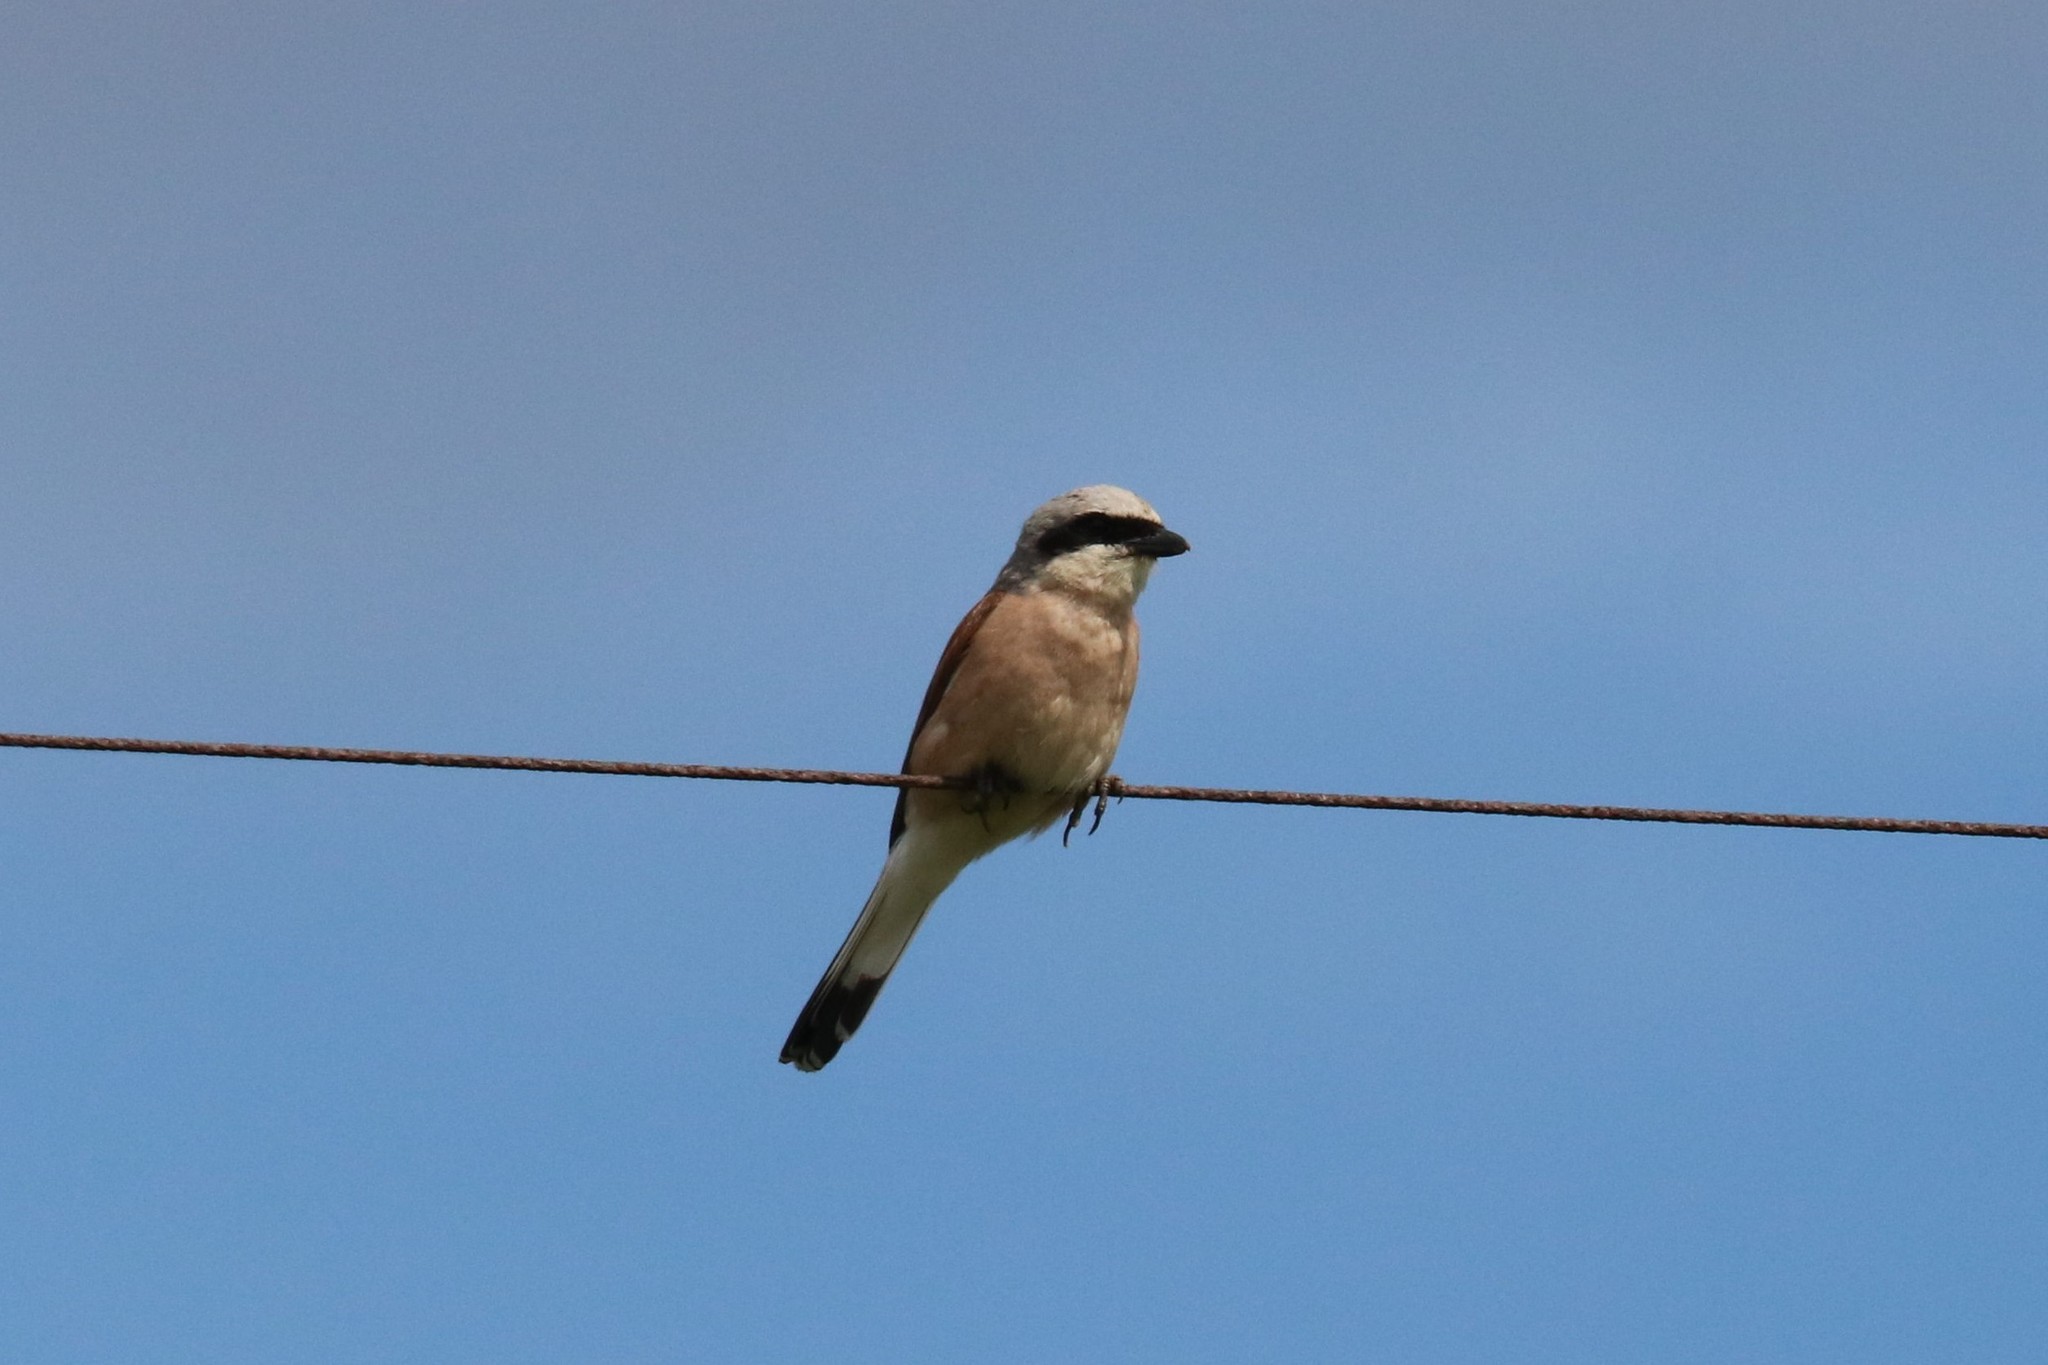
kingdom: Animalia
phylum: Chordata
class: Aves
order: Passeriformes
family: Laniidae
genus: Lanius
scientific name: Lanius collurio
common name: Red-backed shrike
